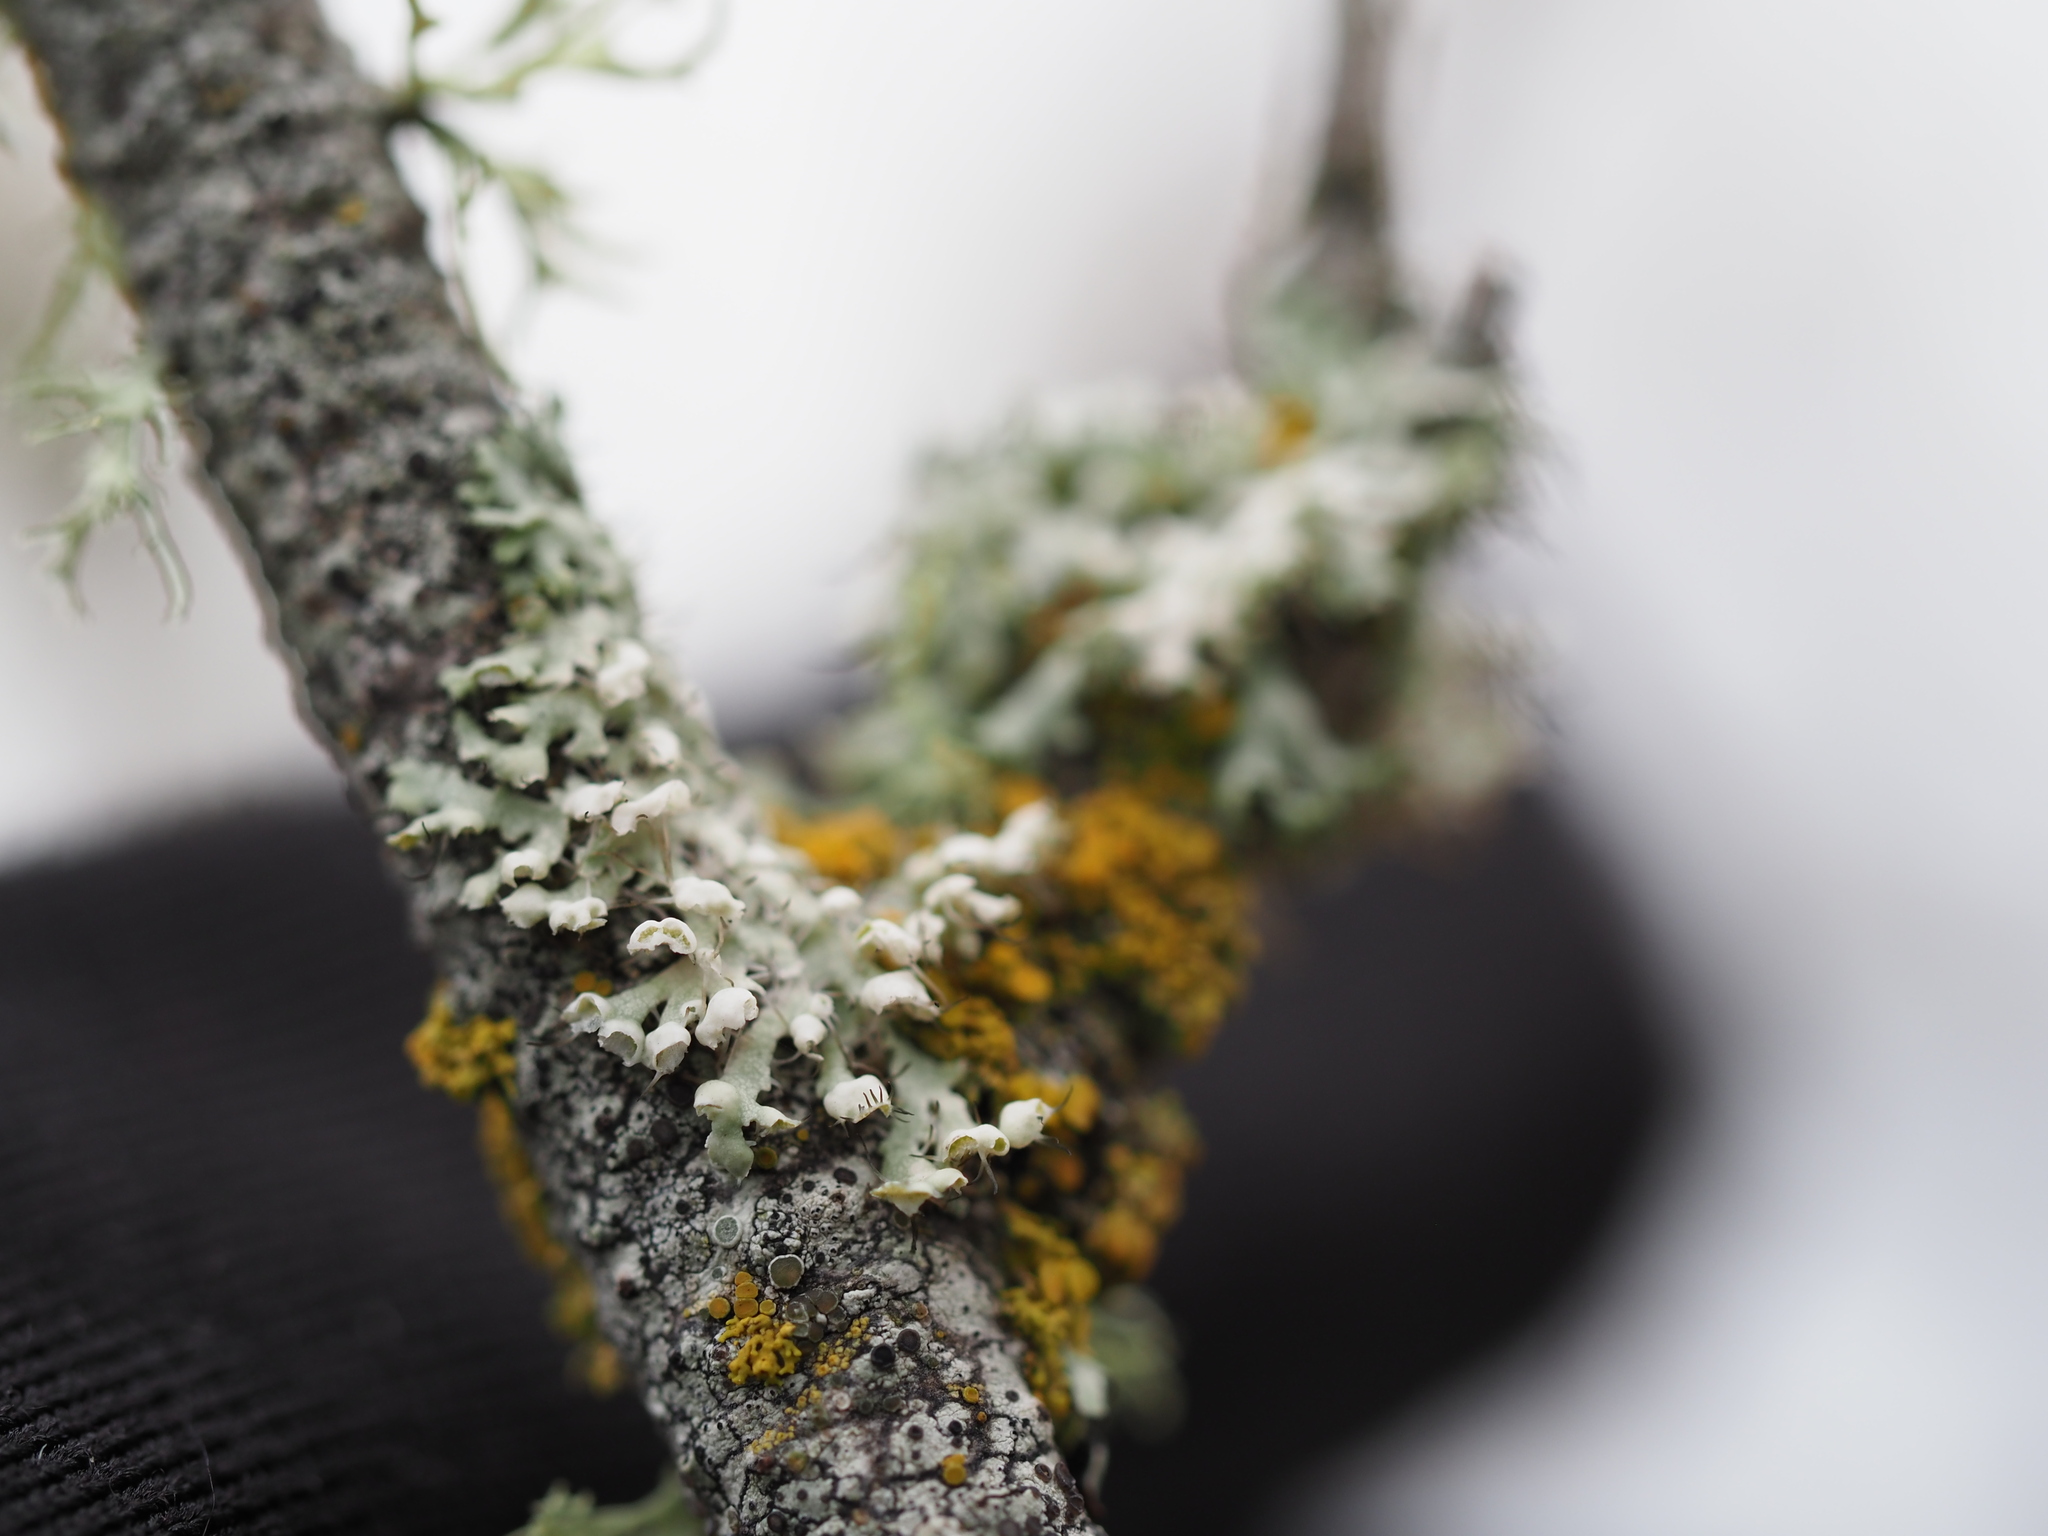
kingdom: Fungi
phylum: Ascomycota
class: Lecanoromycetes
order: Caliciales
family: Physciaceae
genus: Physcia
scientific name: Physcia adscendens
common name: Hooded rosette lichen
